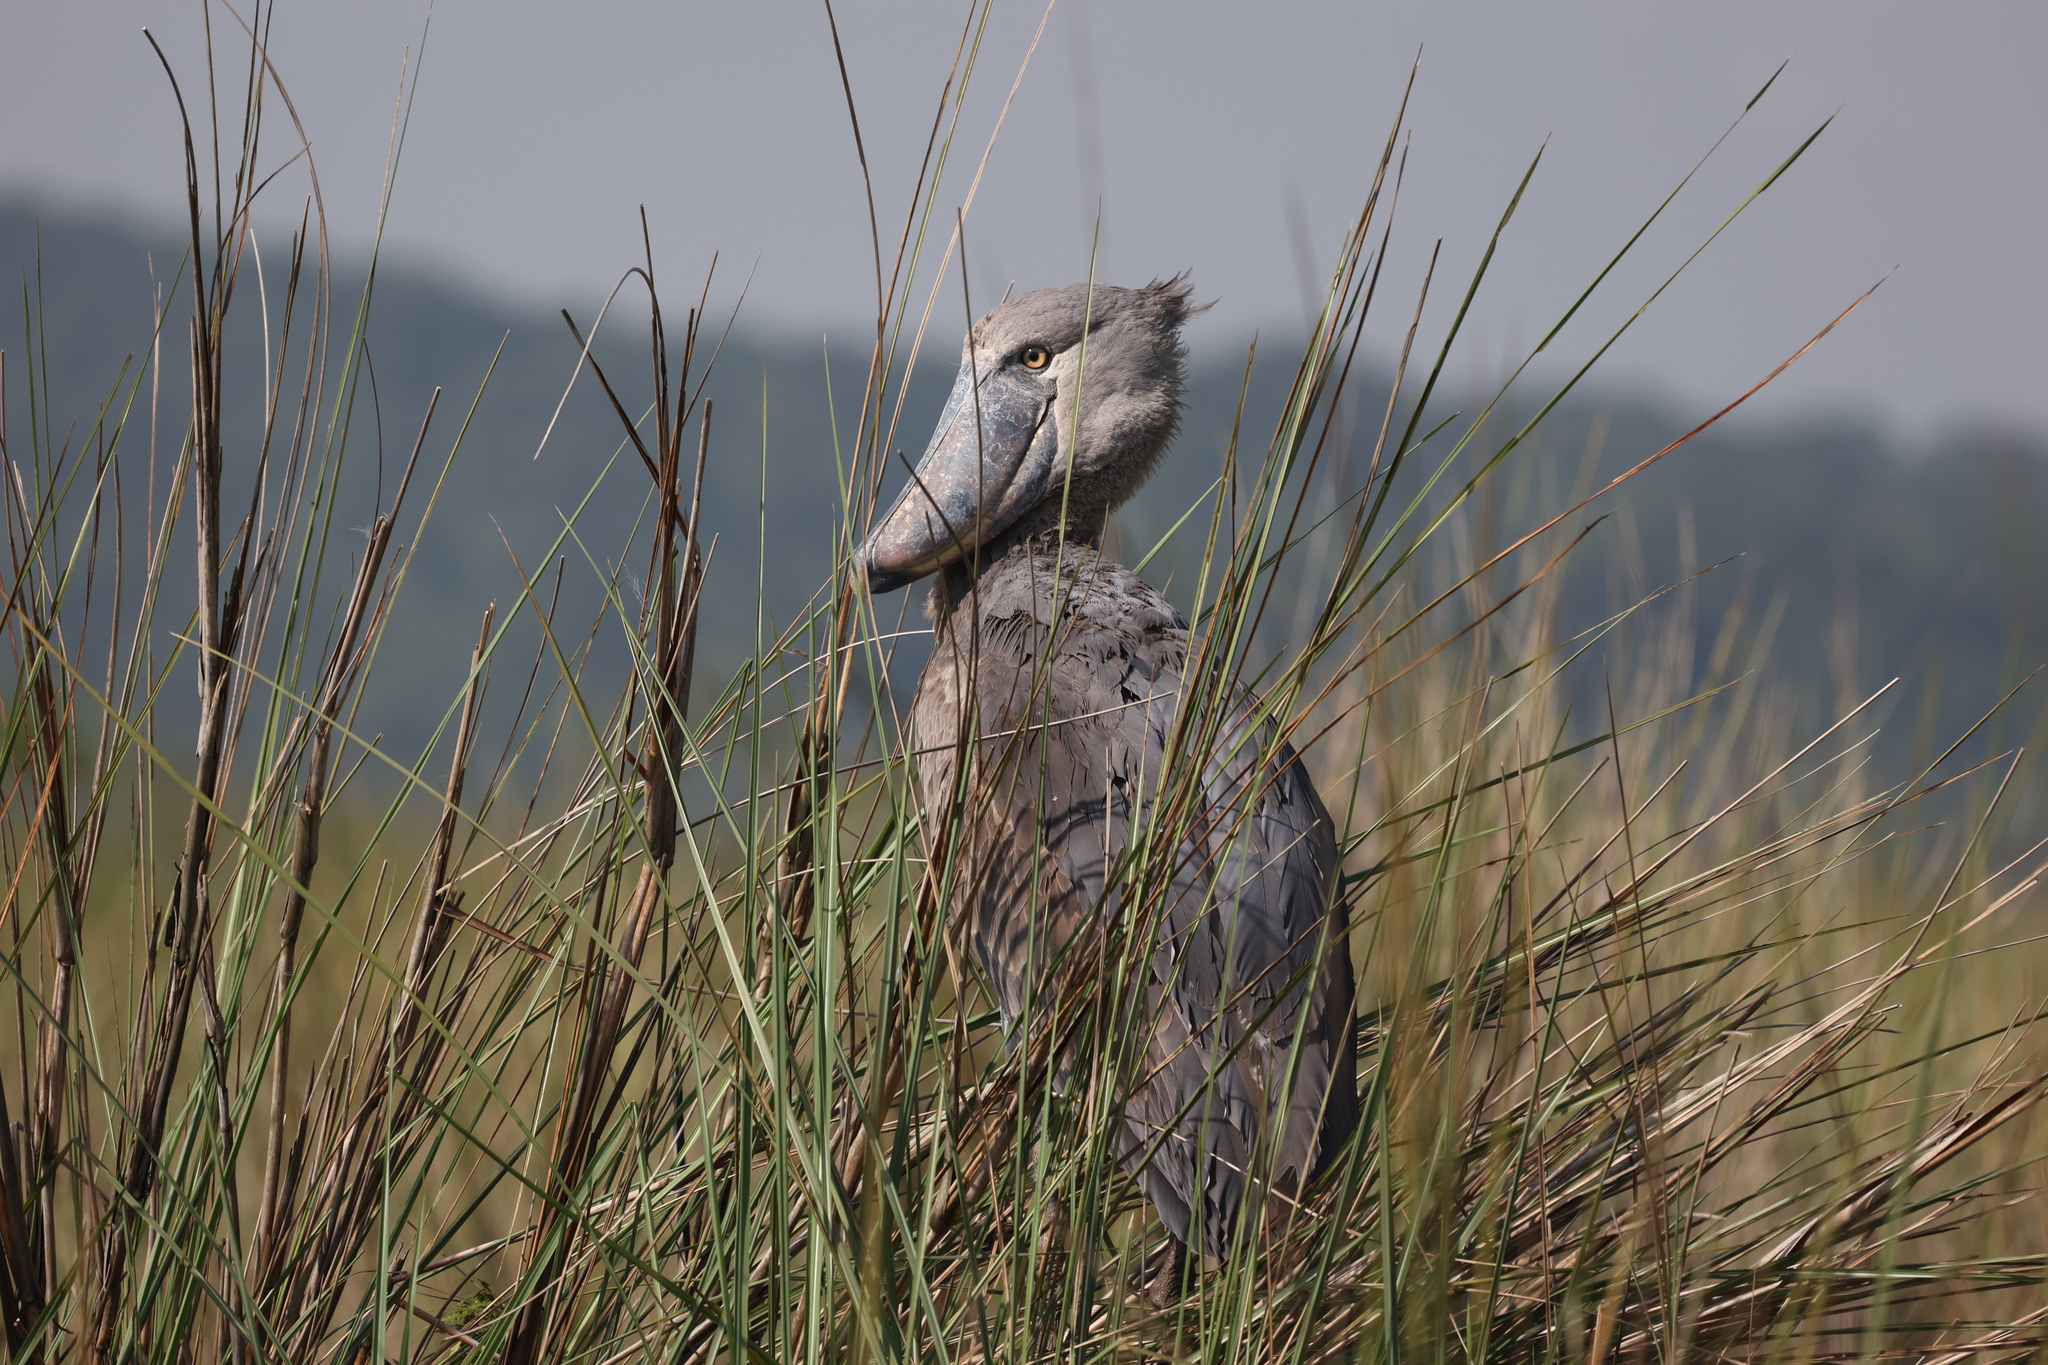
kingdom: Animalia
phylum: Chordata
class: Aves
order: Pelecaniformes
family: Balaenicipitidae
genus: Balaeniceps
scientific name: Balaeniceps rex
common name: Shoebill
